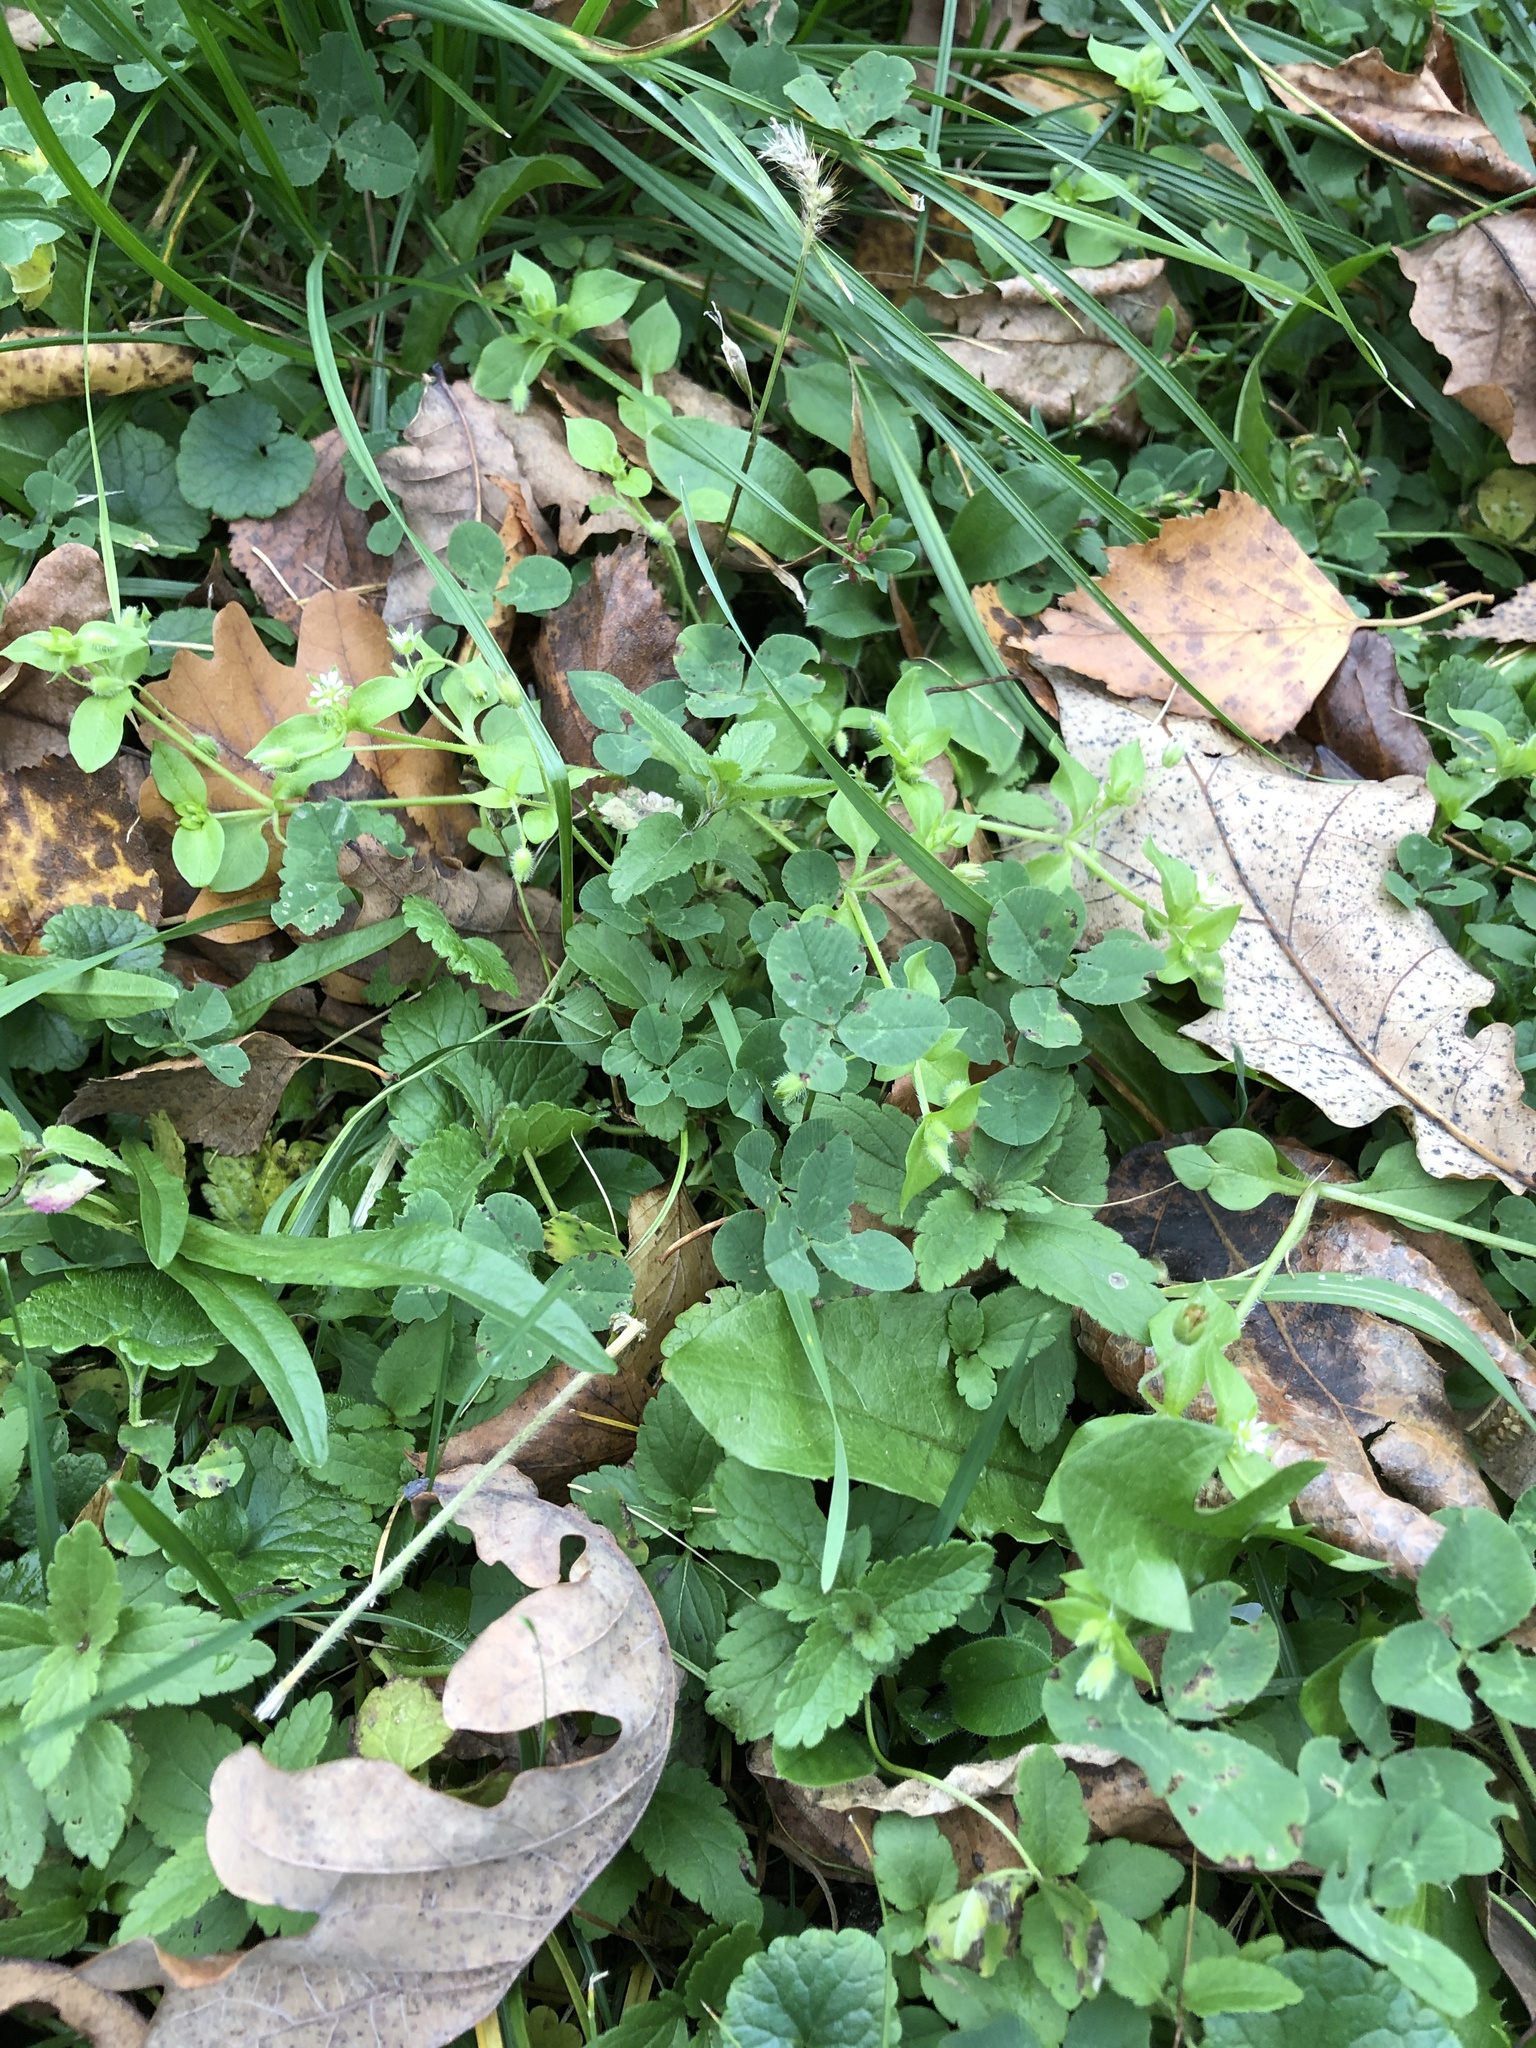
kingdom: Plantae
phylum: Tracheophyta
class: Magnoliopsida
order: Caryophyllales
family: Caryophyllaceae
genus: Stellaria
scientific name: Stellaria media
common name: Common chickweed
